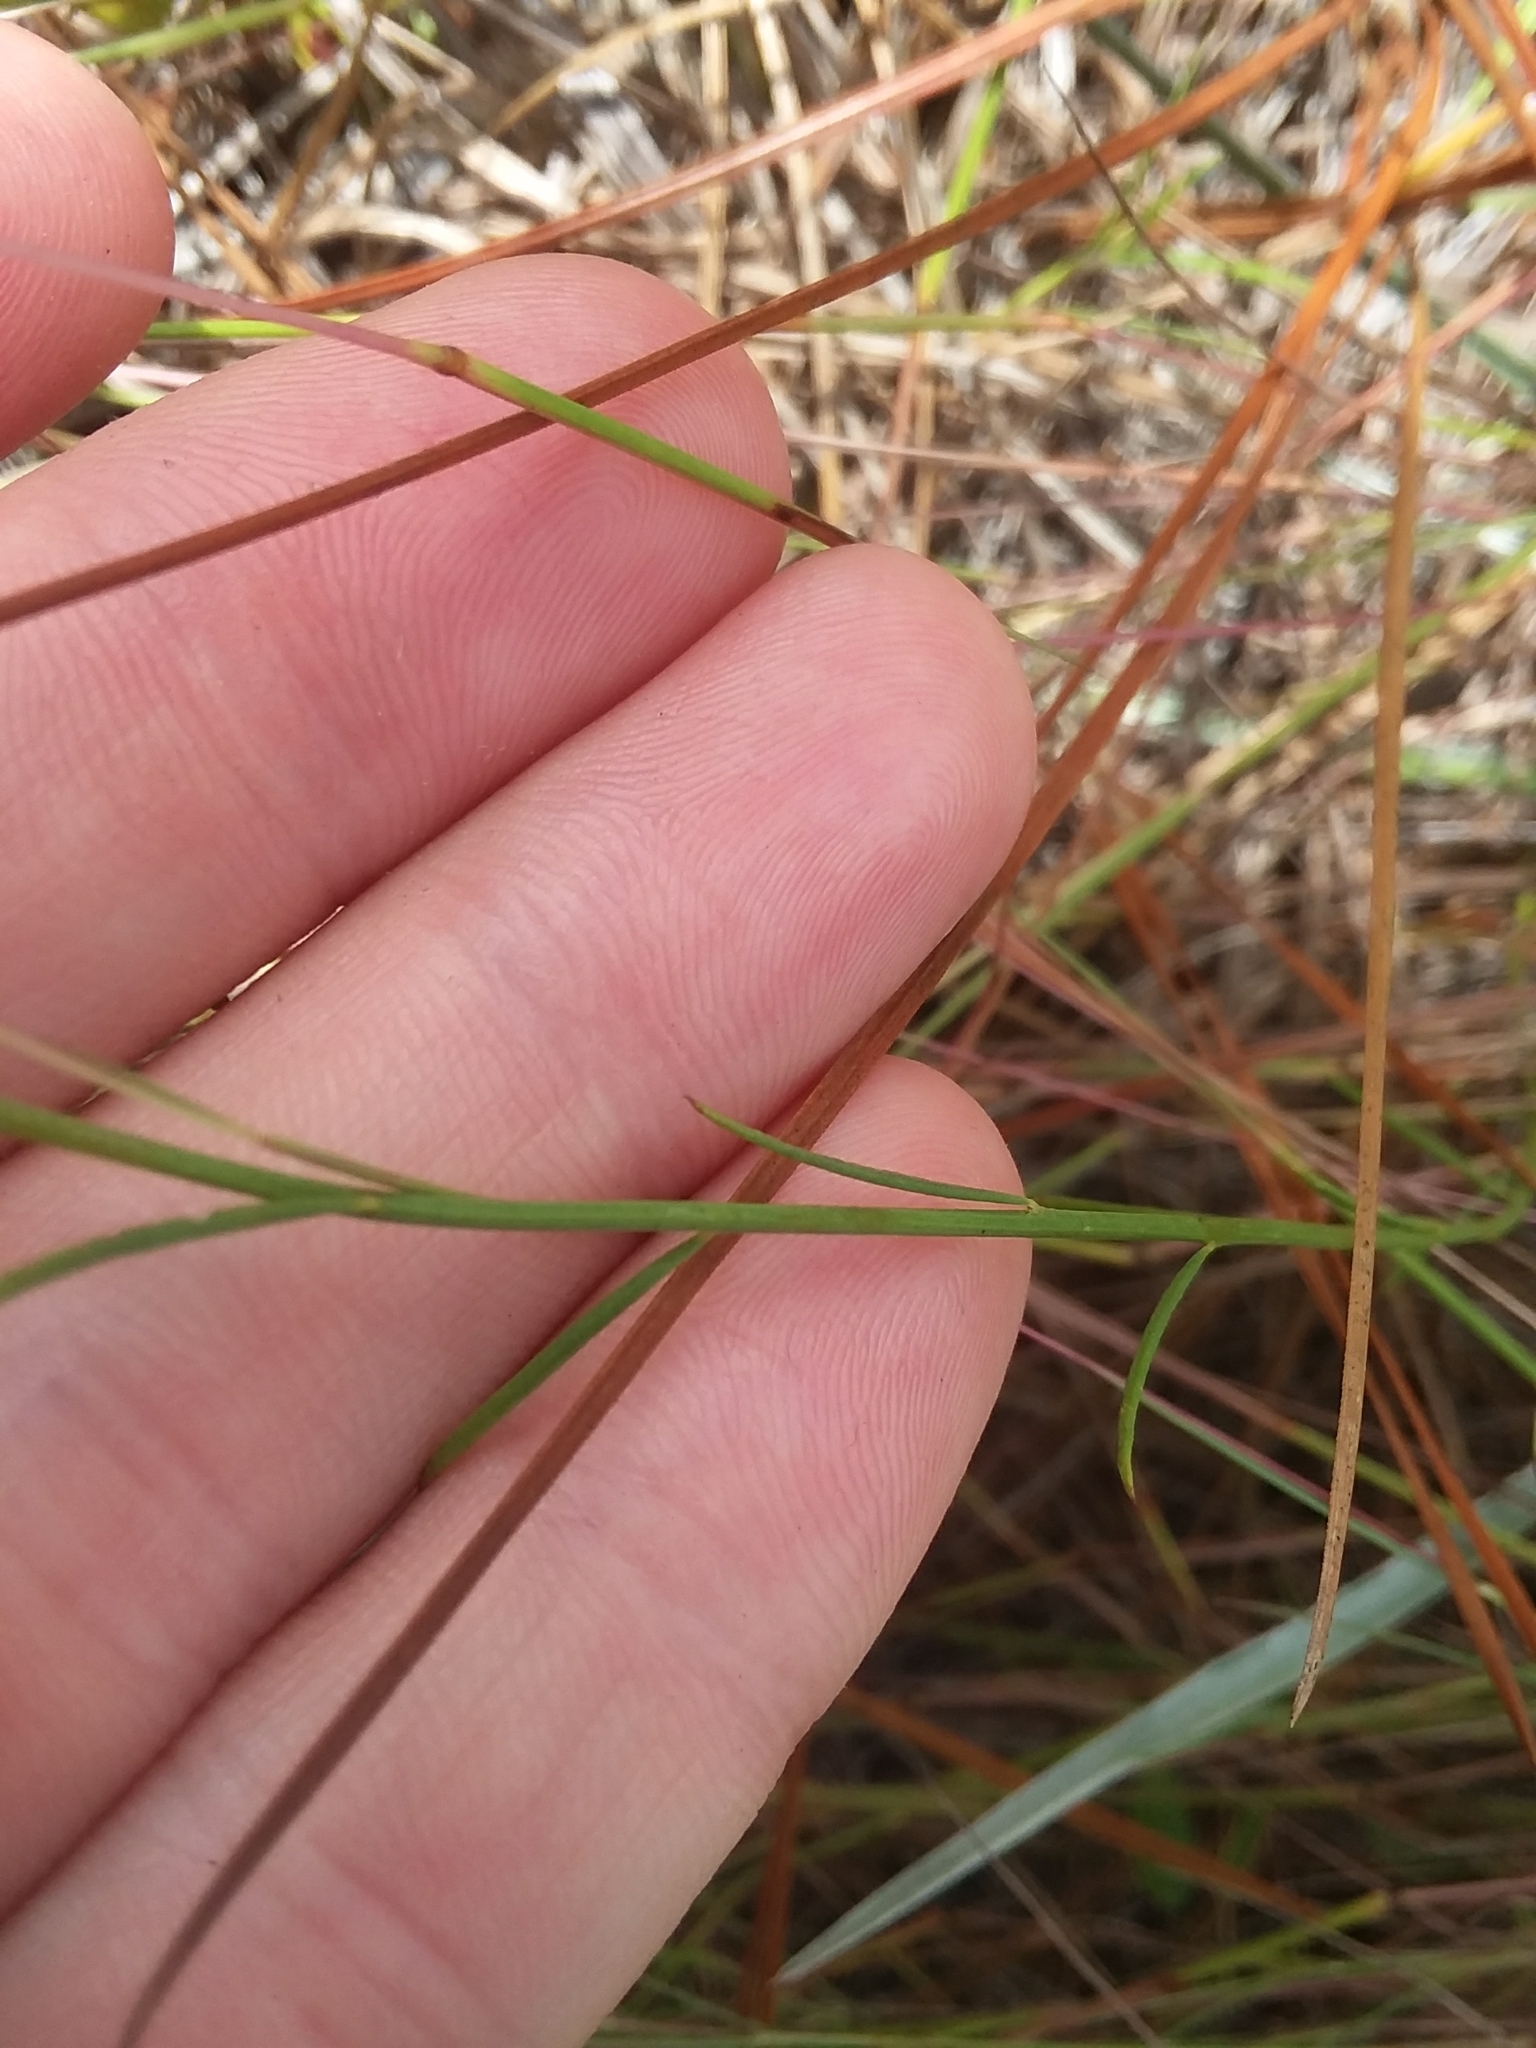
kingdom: Plantae
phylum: Tracheophyta
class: Magnoliopsida
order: Fabales
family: Polygalaceae
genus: Polygala
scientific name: Polygala nuttallii
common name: Nuttall's milkwort
